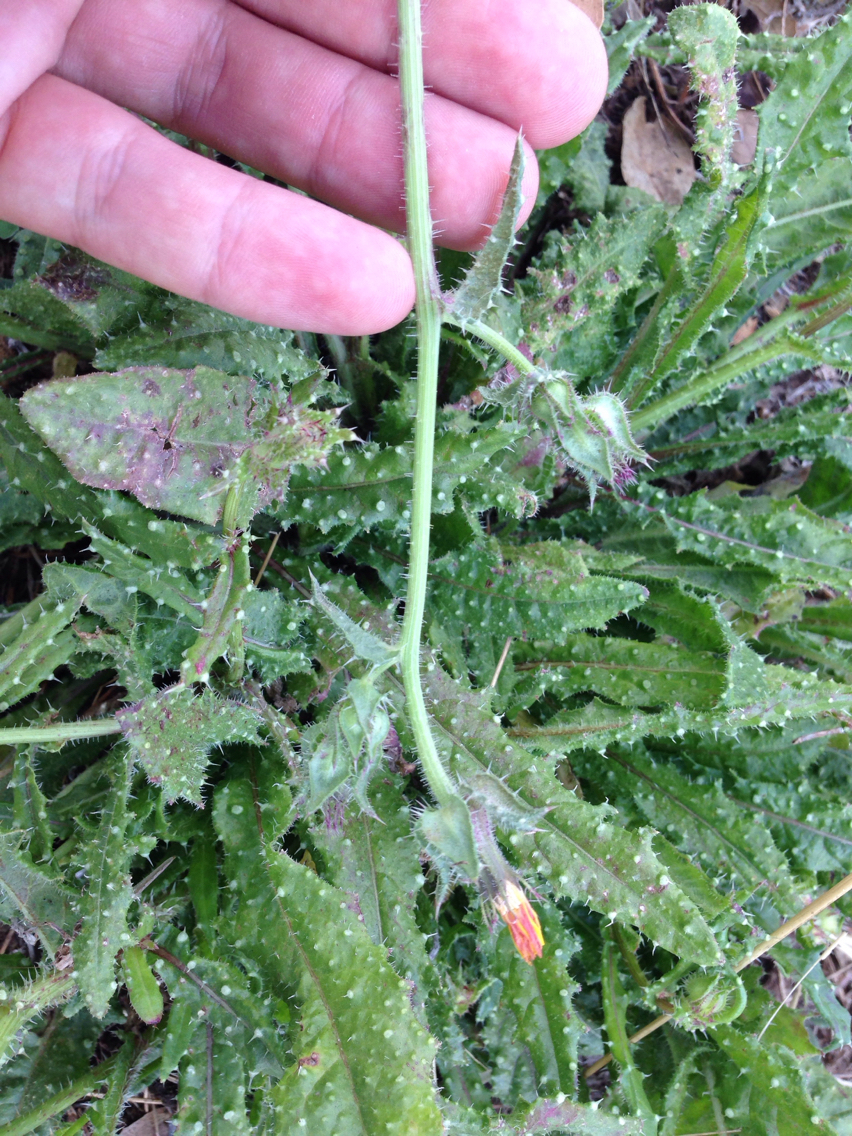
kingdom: Plantae
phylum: Tracheophyta
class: Magnoliopsida
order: Asterales
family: Asteraceae
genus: Helminthotheca
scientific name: Helminthotheca echioides
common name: Ox-tongue
